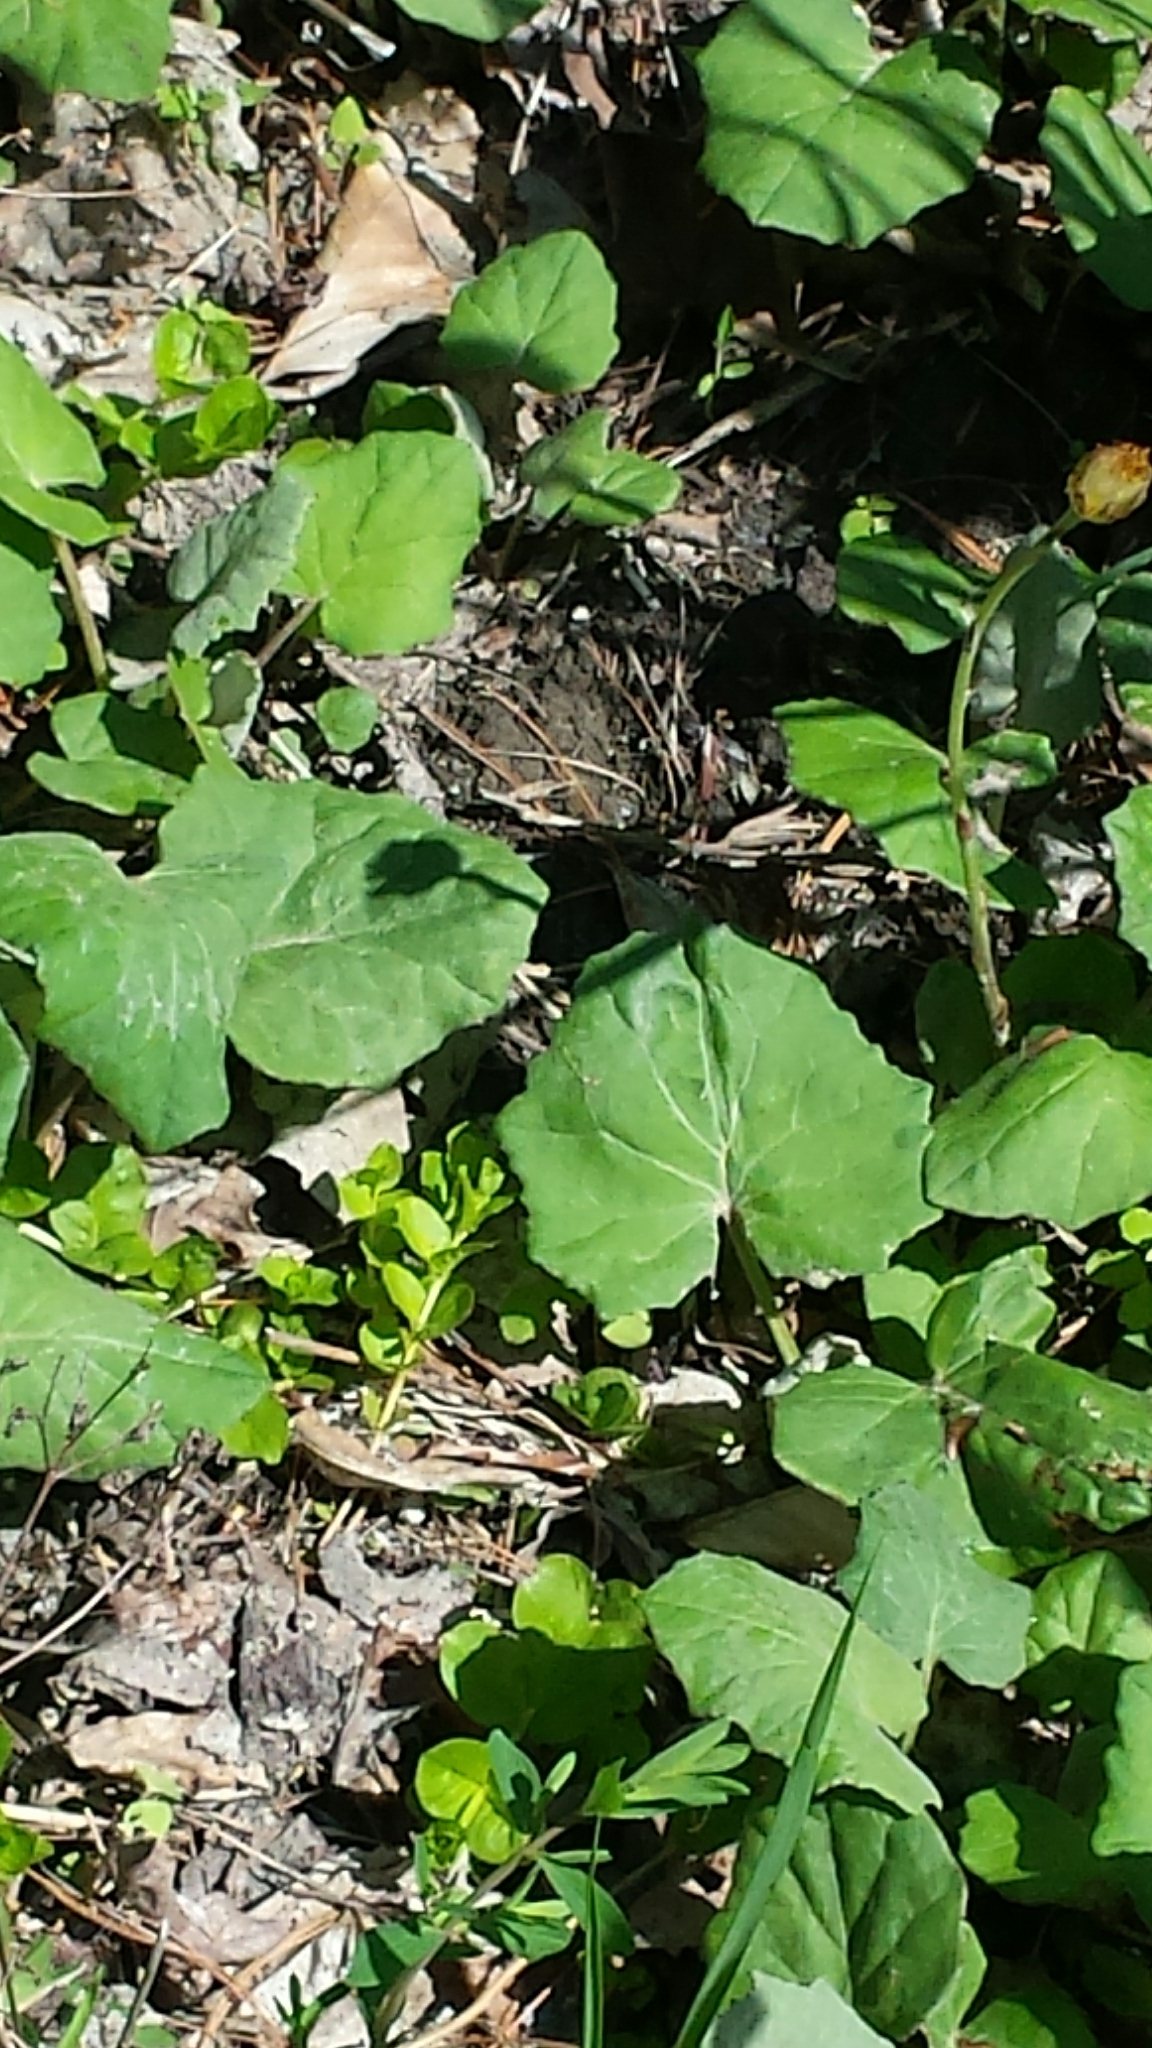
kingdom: Plantae
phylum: Tracheophyta
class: Magnoliopsida
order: Asterales
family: Asteraceae
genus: Tussilago
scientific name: Tussilago farfara
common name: Coltsfoot
